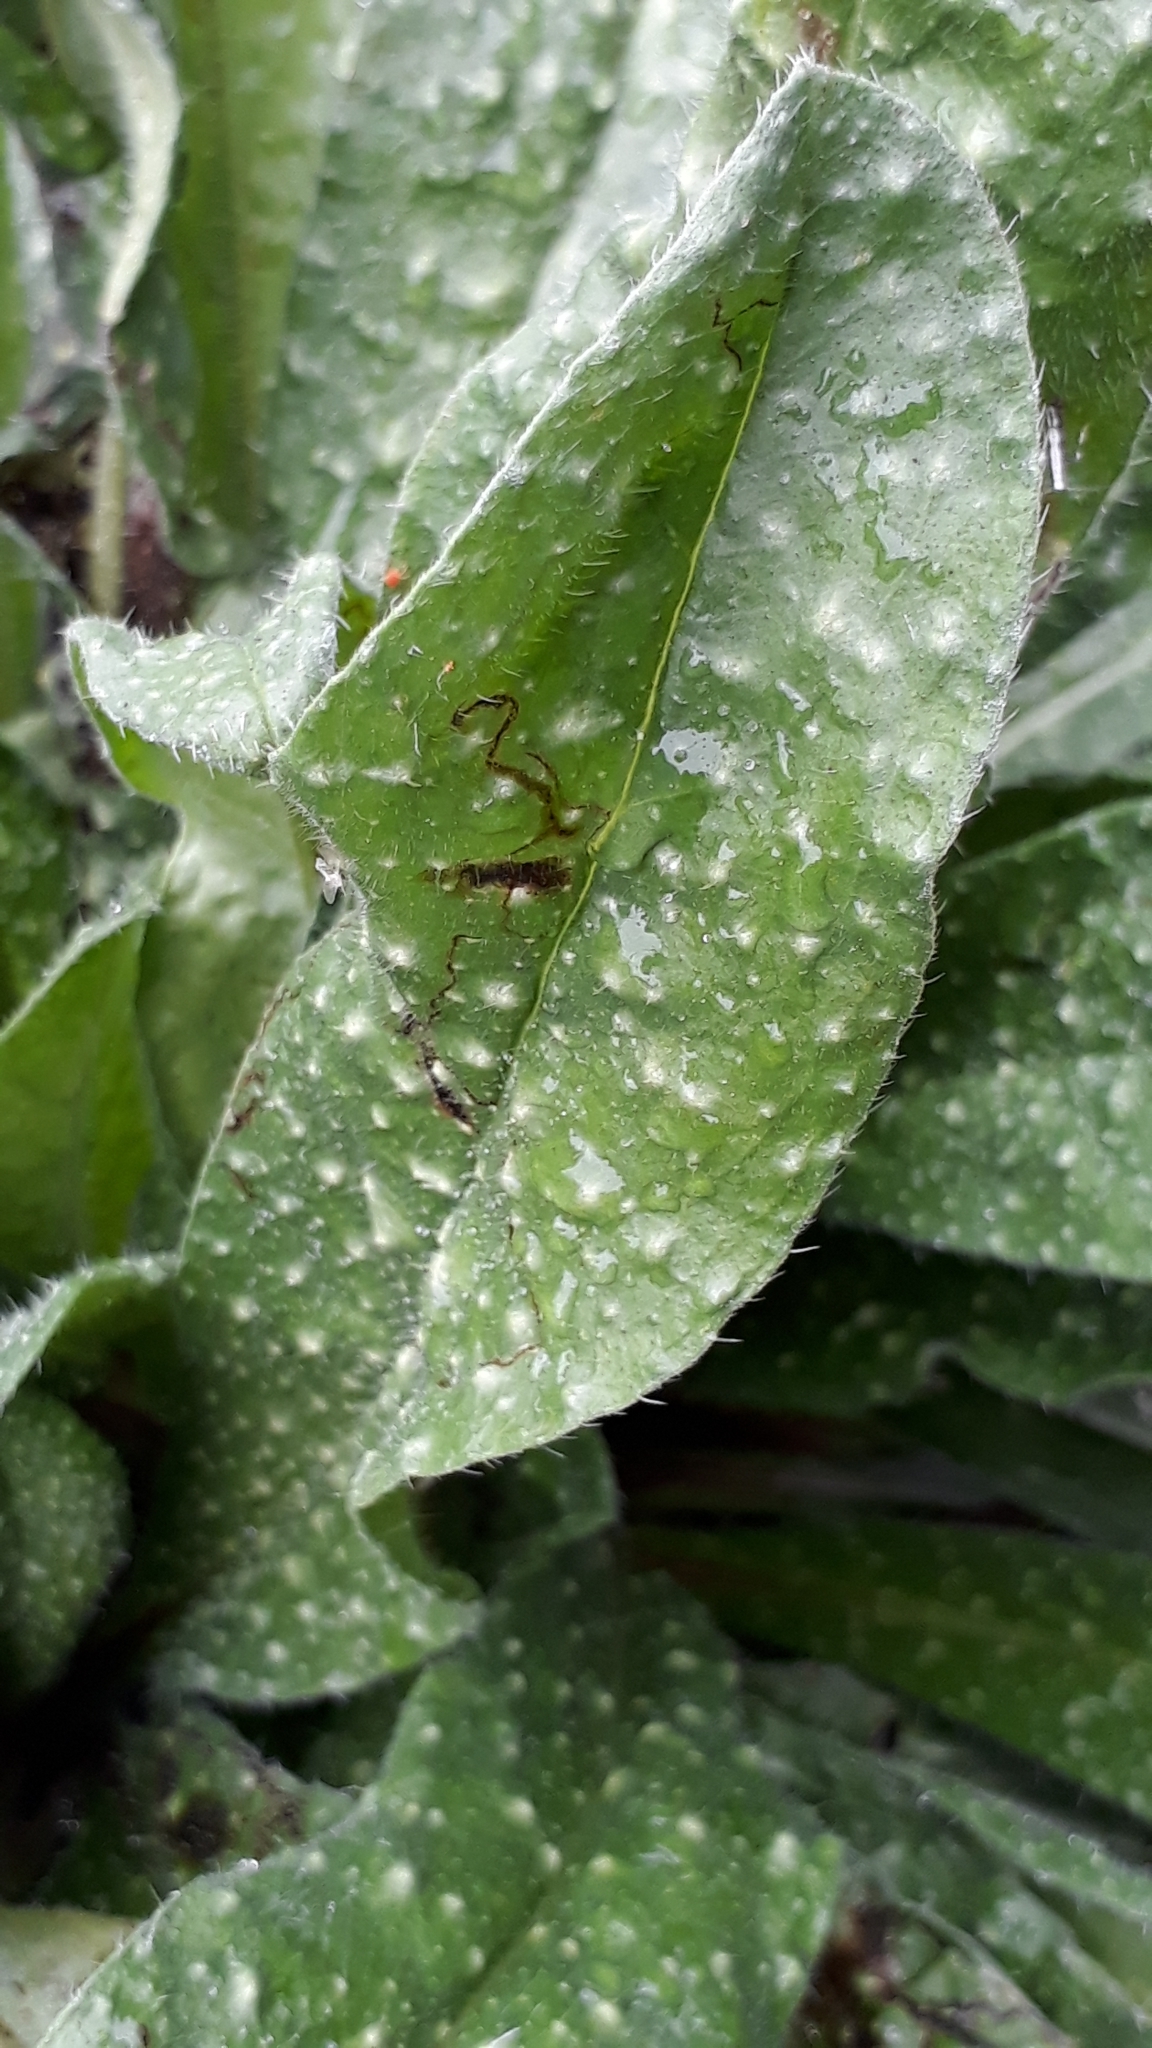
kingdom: Plantae
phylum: Tracheophyta
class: Magnoliopsida
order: Boraginales
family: Boraginaceae
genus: Echium
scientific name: Echium vulgare
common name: Common viper's bugloss
